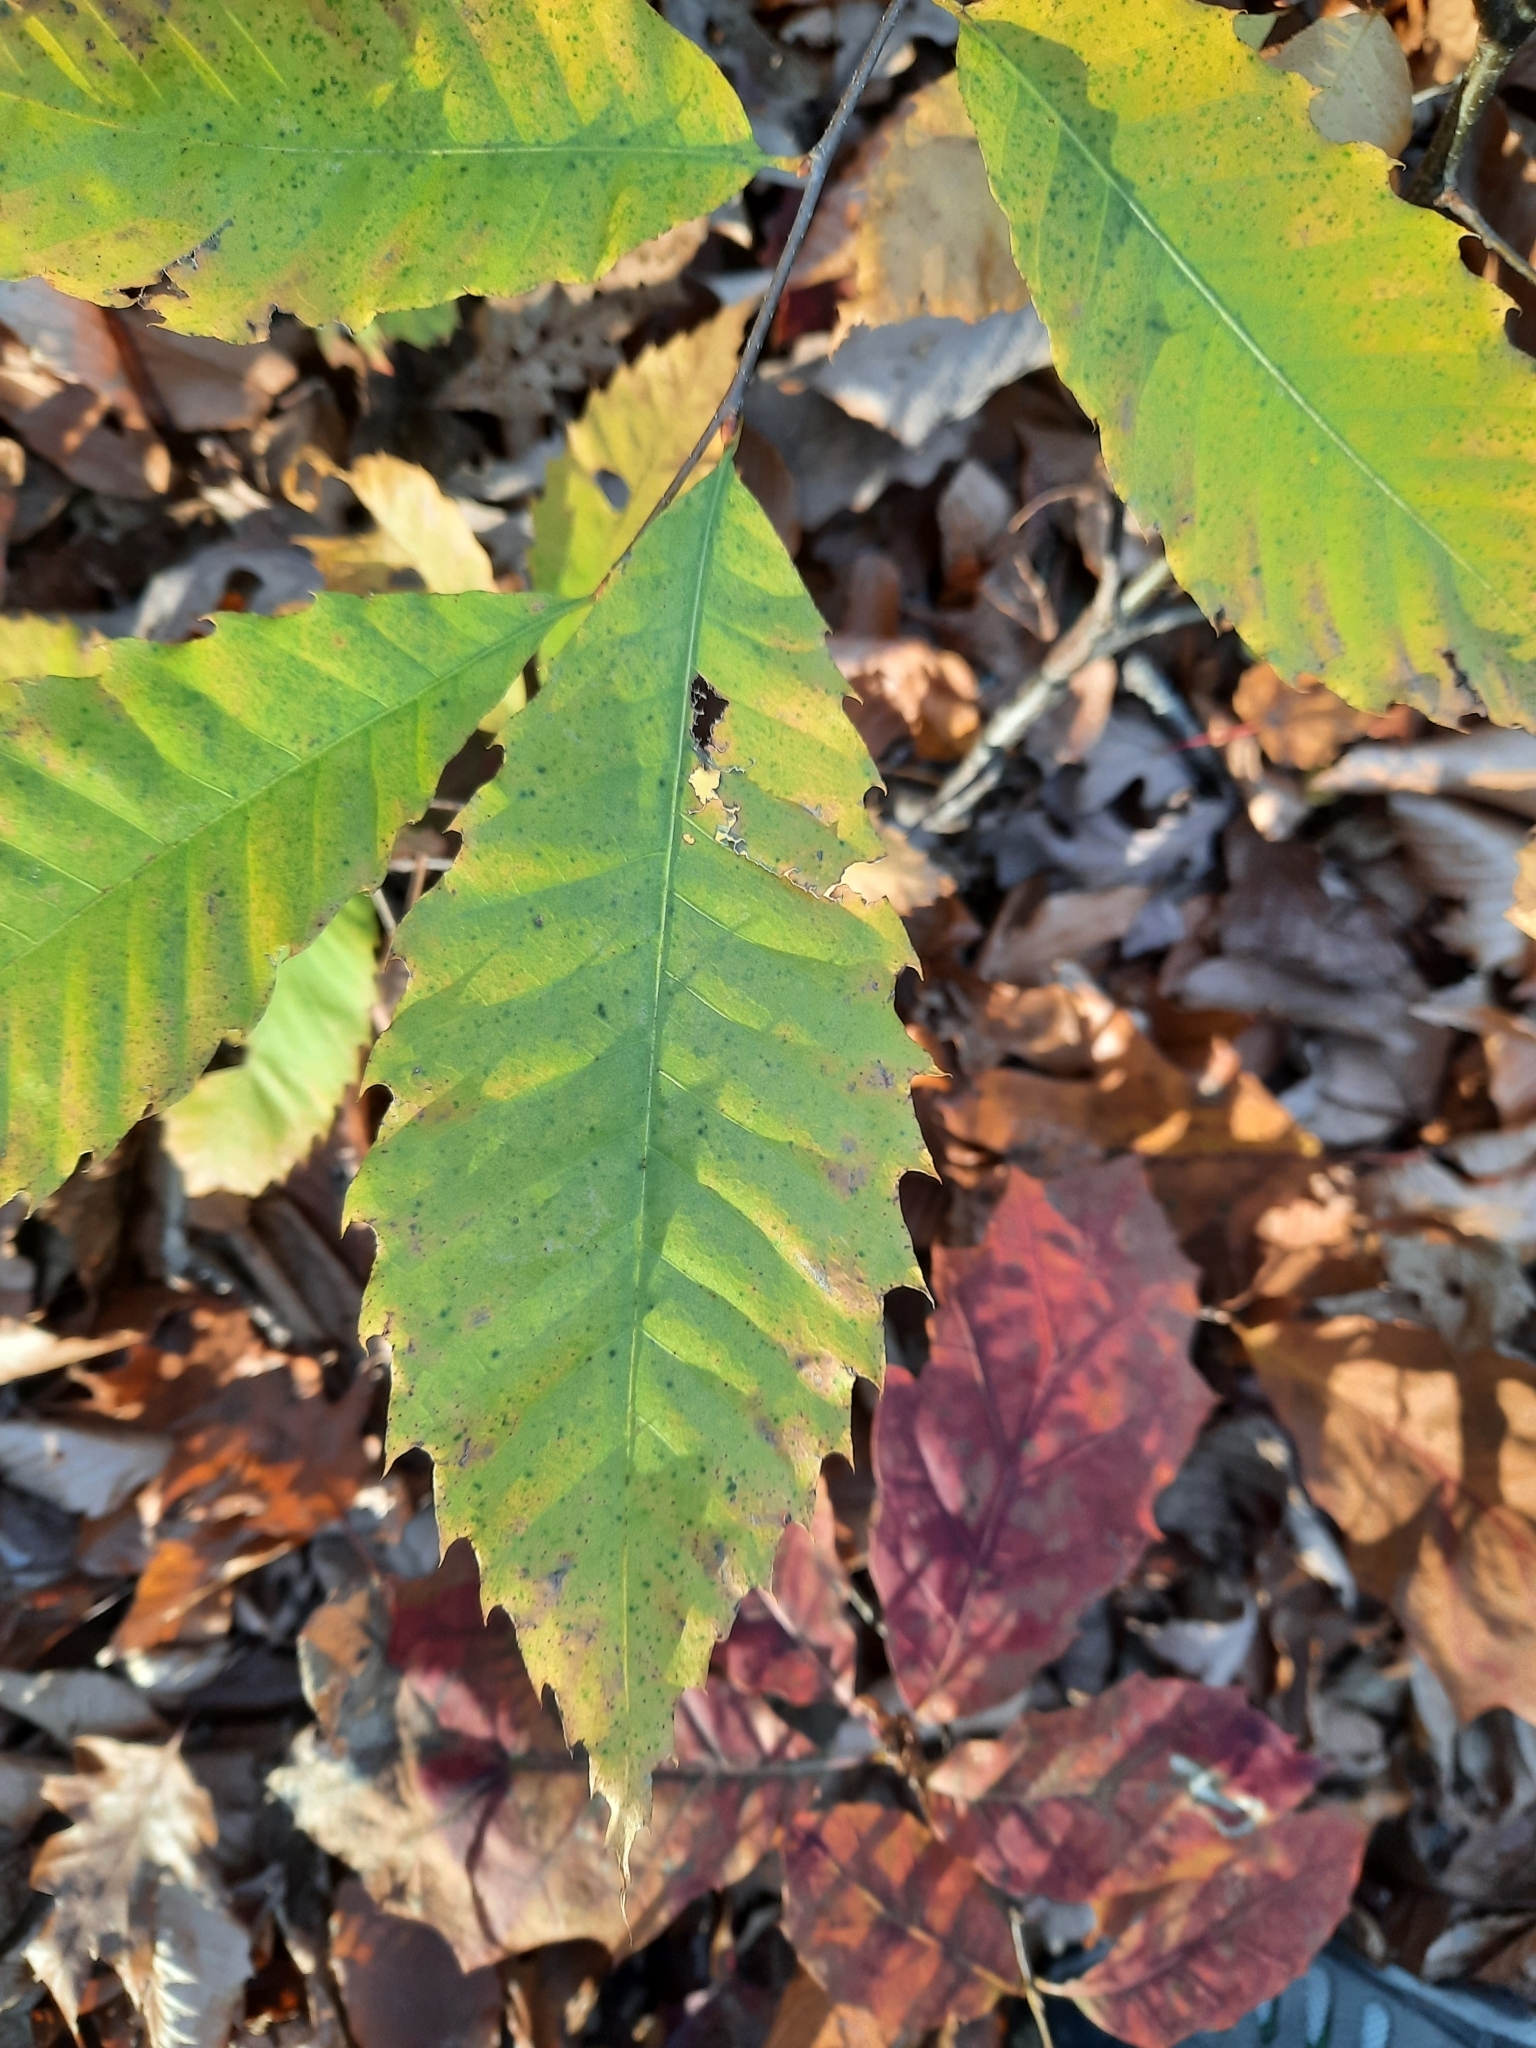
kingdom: Plantae
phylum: Tracheophyta
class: Magnoliopsida
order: Fagales
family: Fagaceae
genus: Castanea
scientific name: Castanea dentata
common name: American chestnut
